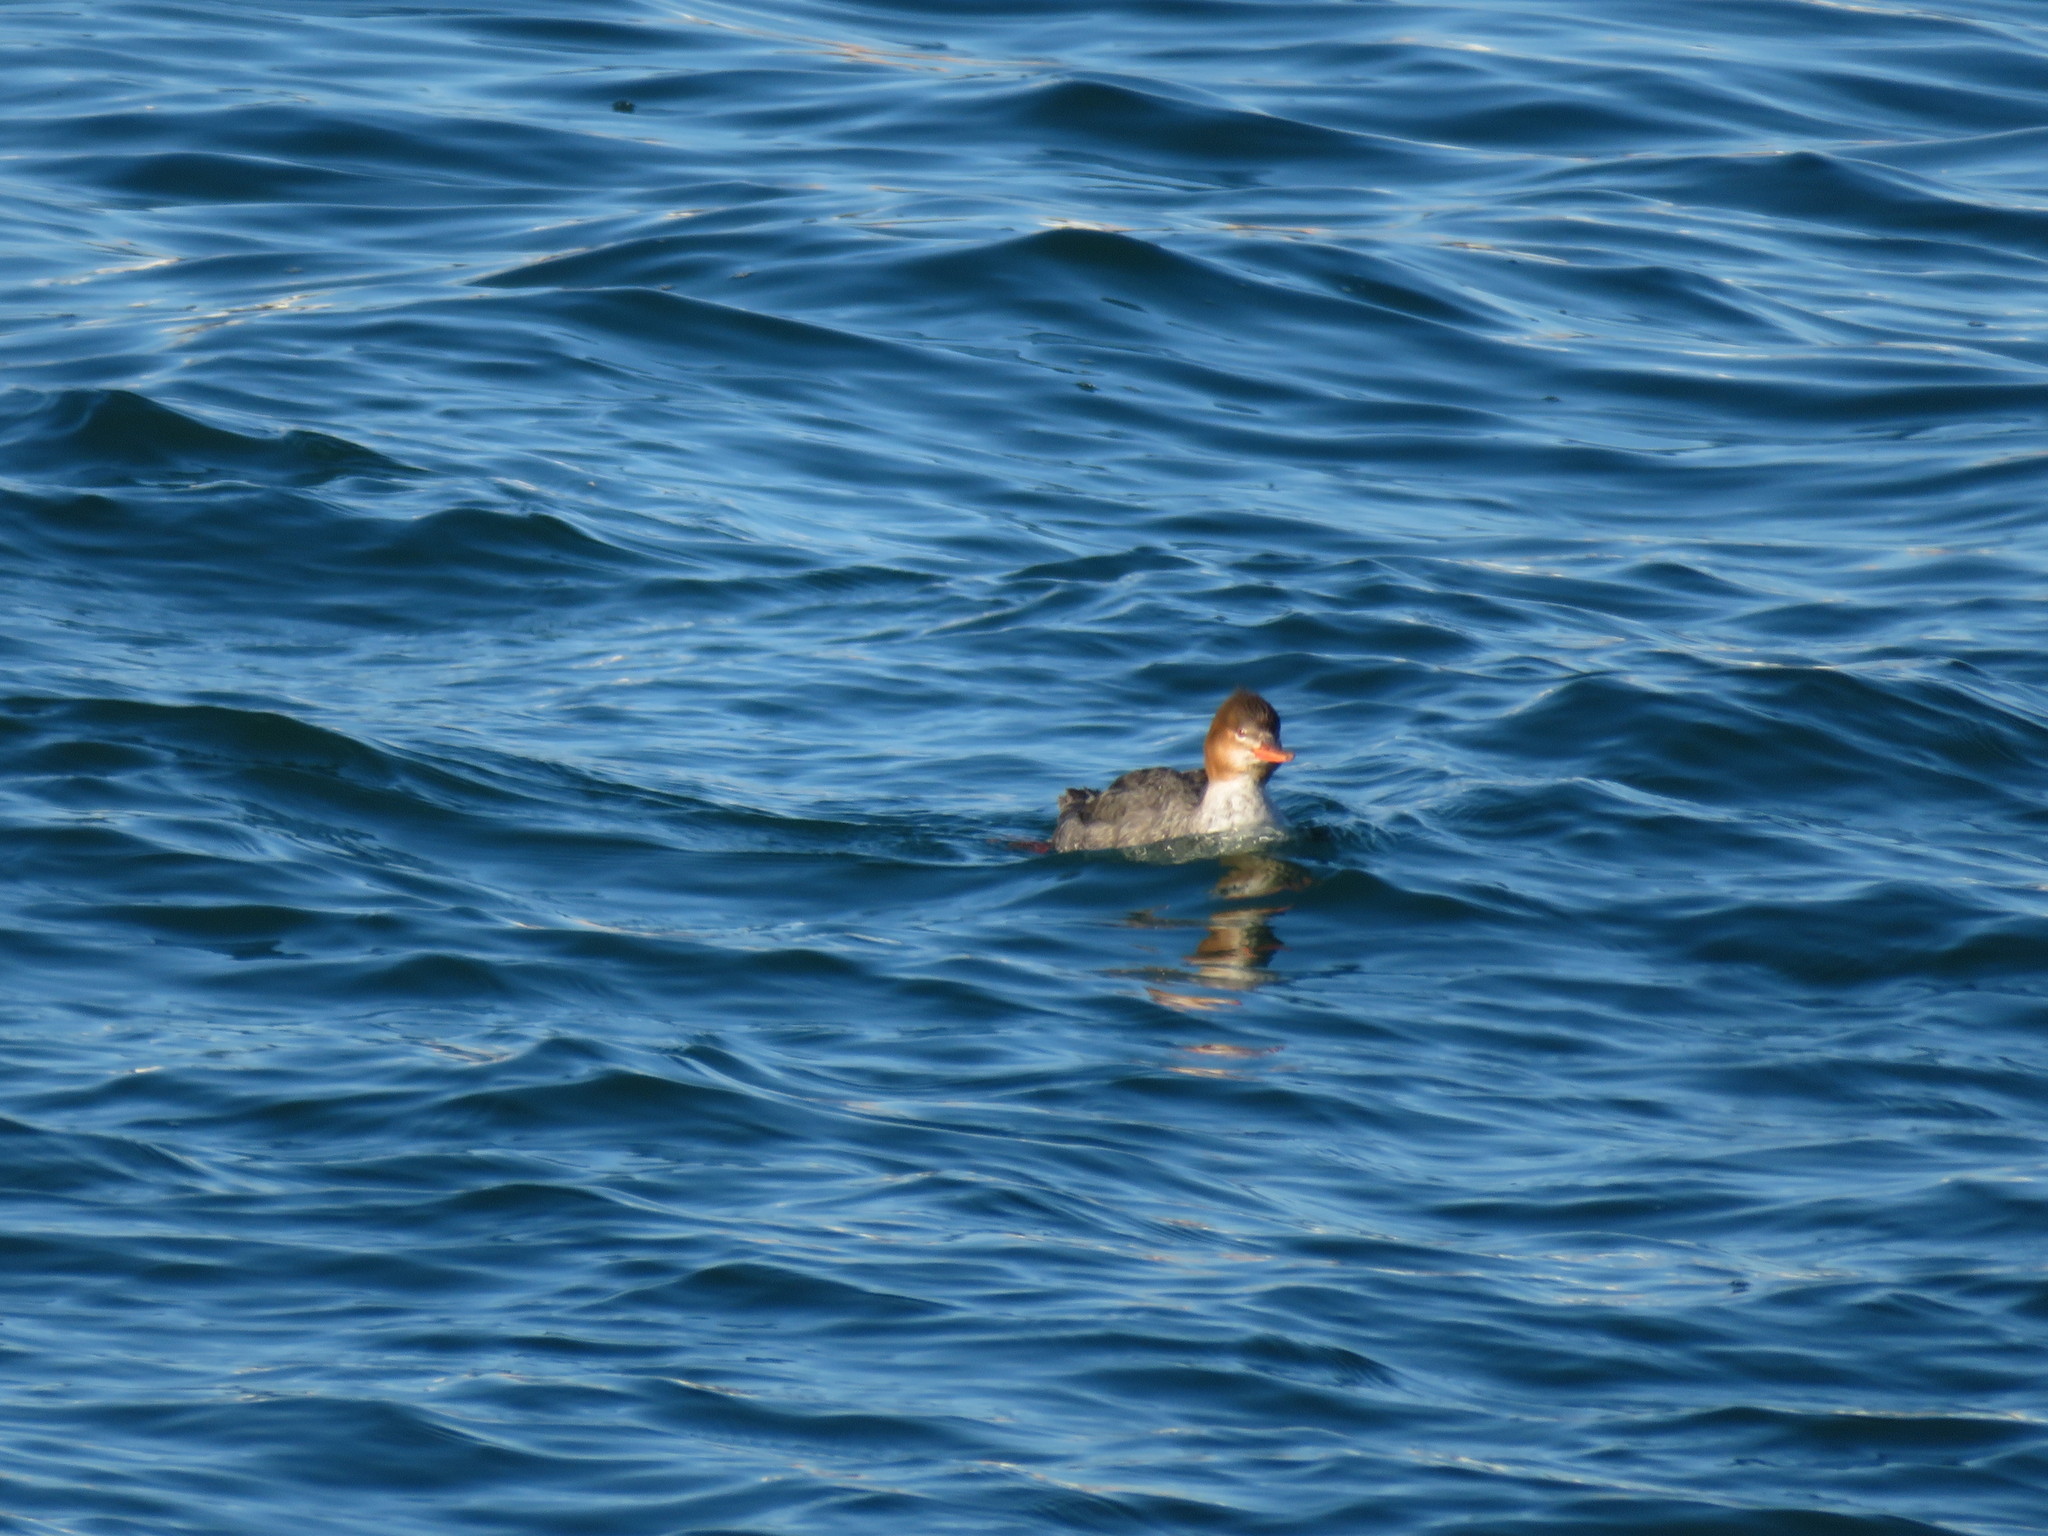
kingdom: Animalia
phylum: Chordata
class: Aves
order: Anseriformes
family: Anatidae
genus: Mergus
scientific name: Mergus serrator
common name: Red-breasted merganser
